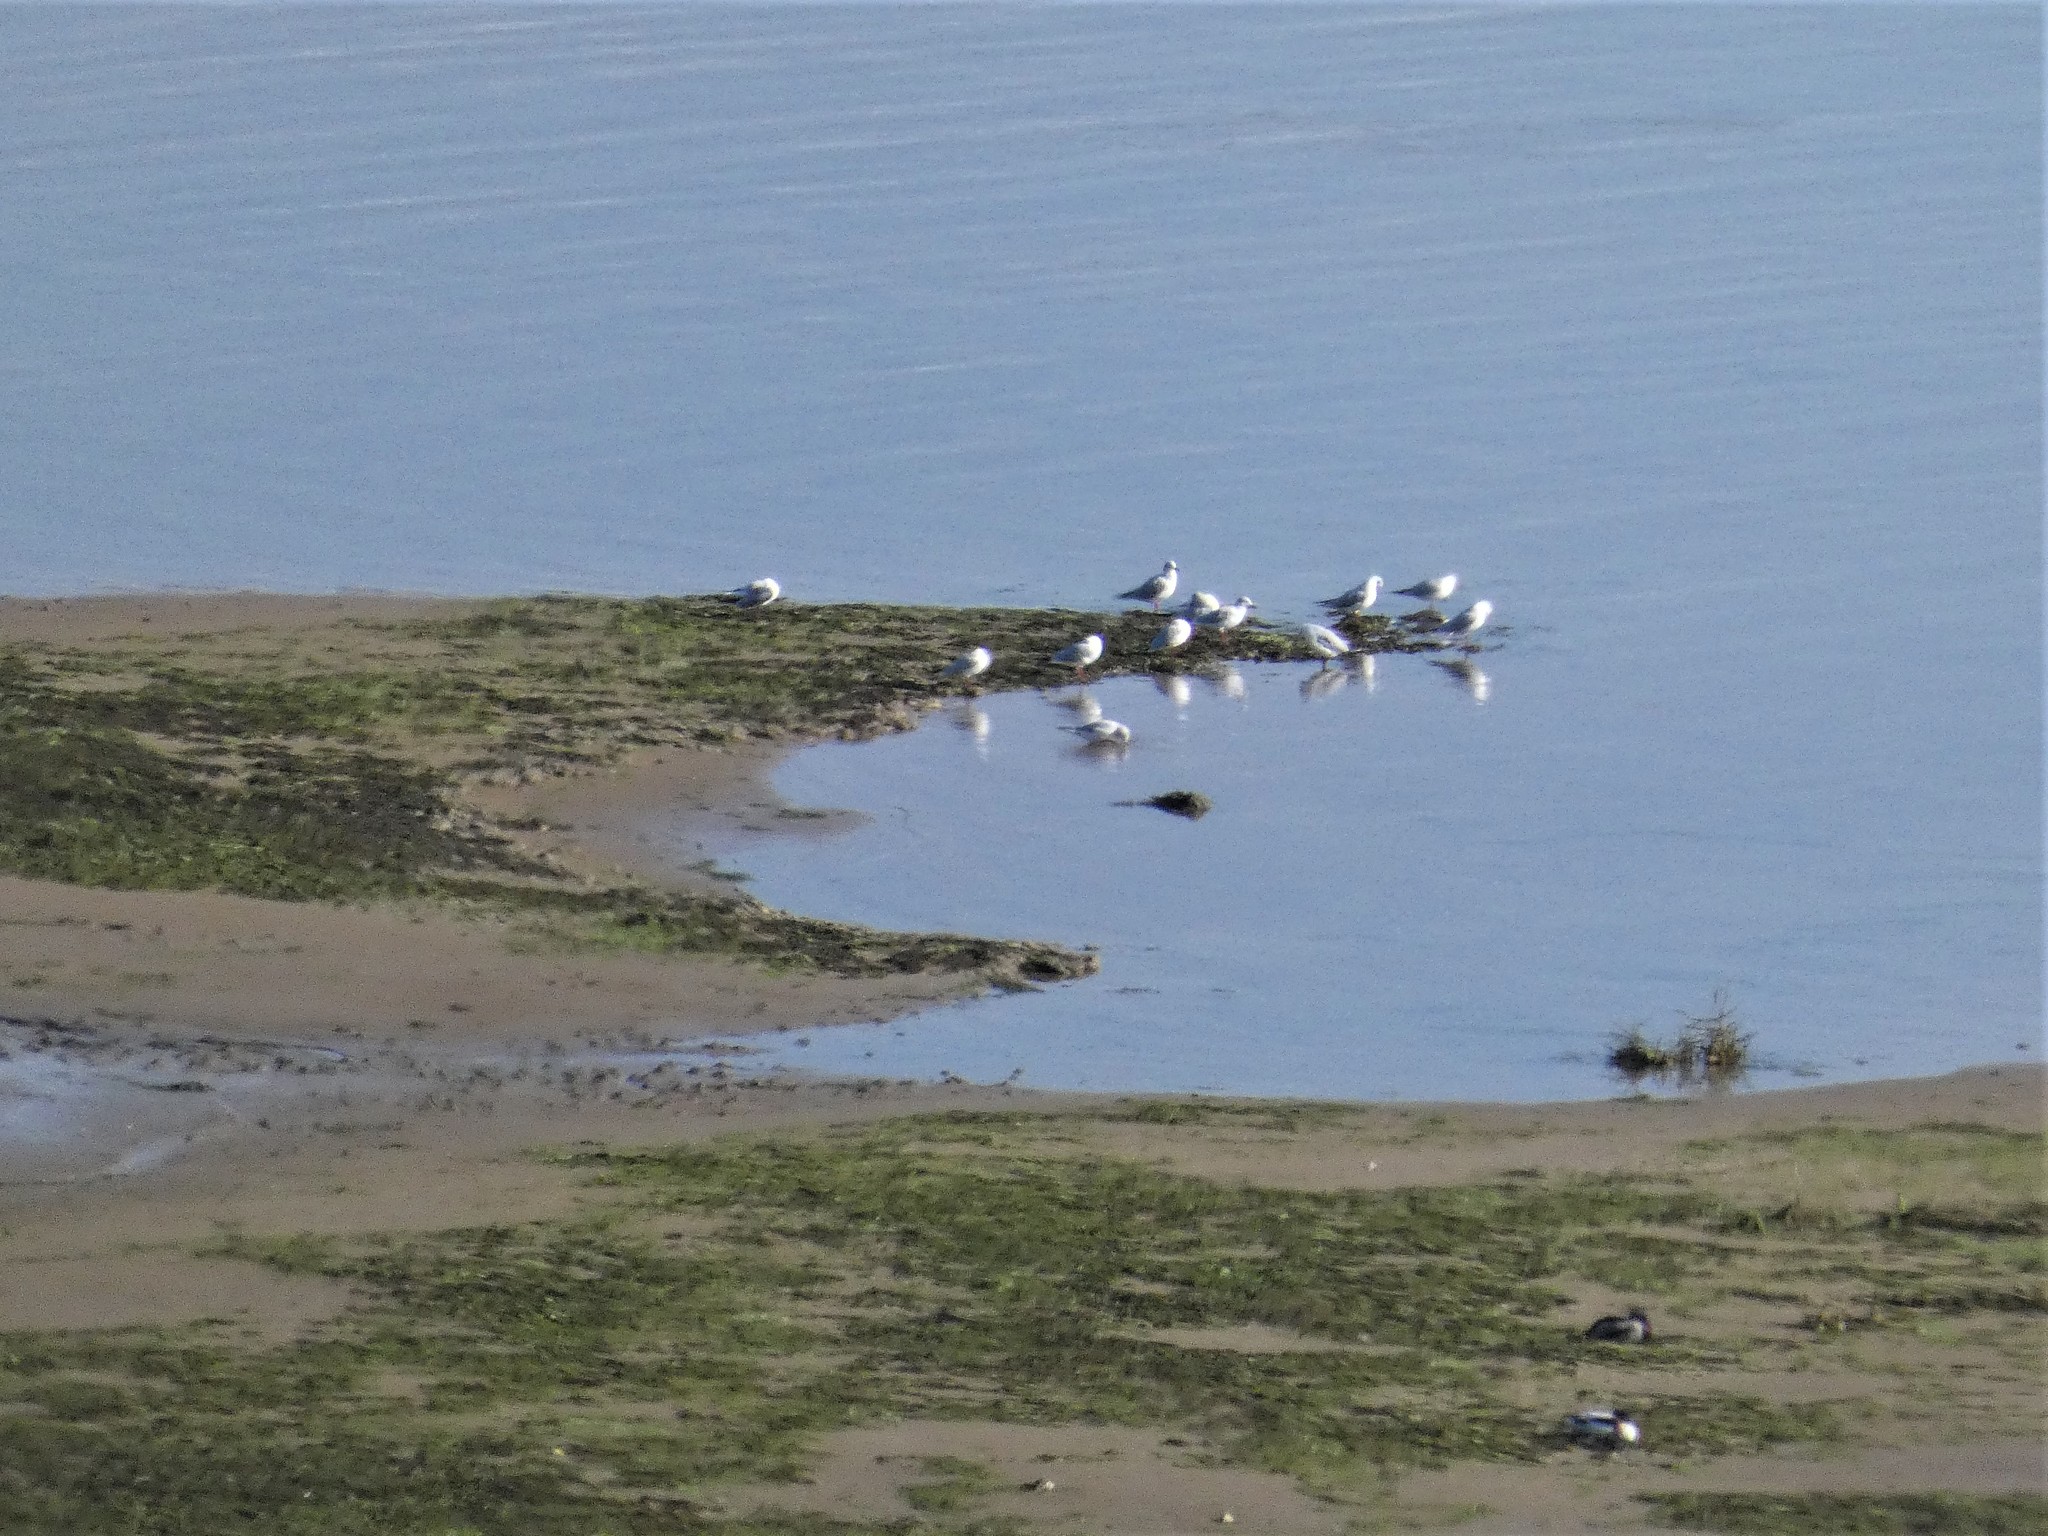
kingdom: Animalia
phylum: Chordata
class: Aves
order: Anseriformes
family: Anatidae
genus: Tadorna
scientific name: Tadorna tadorna
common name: Common shelduck
